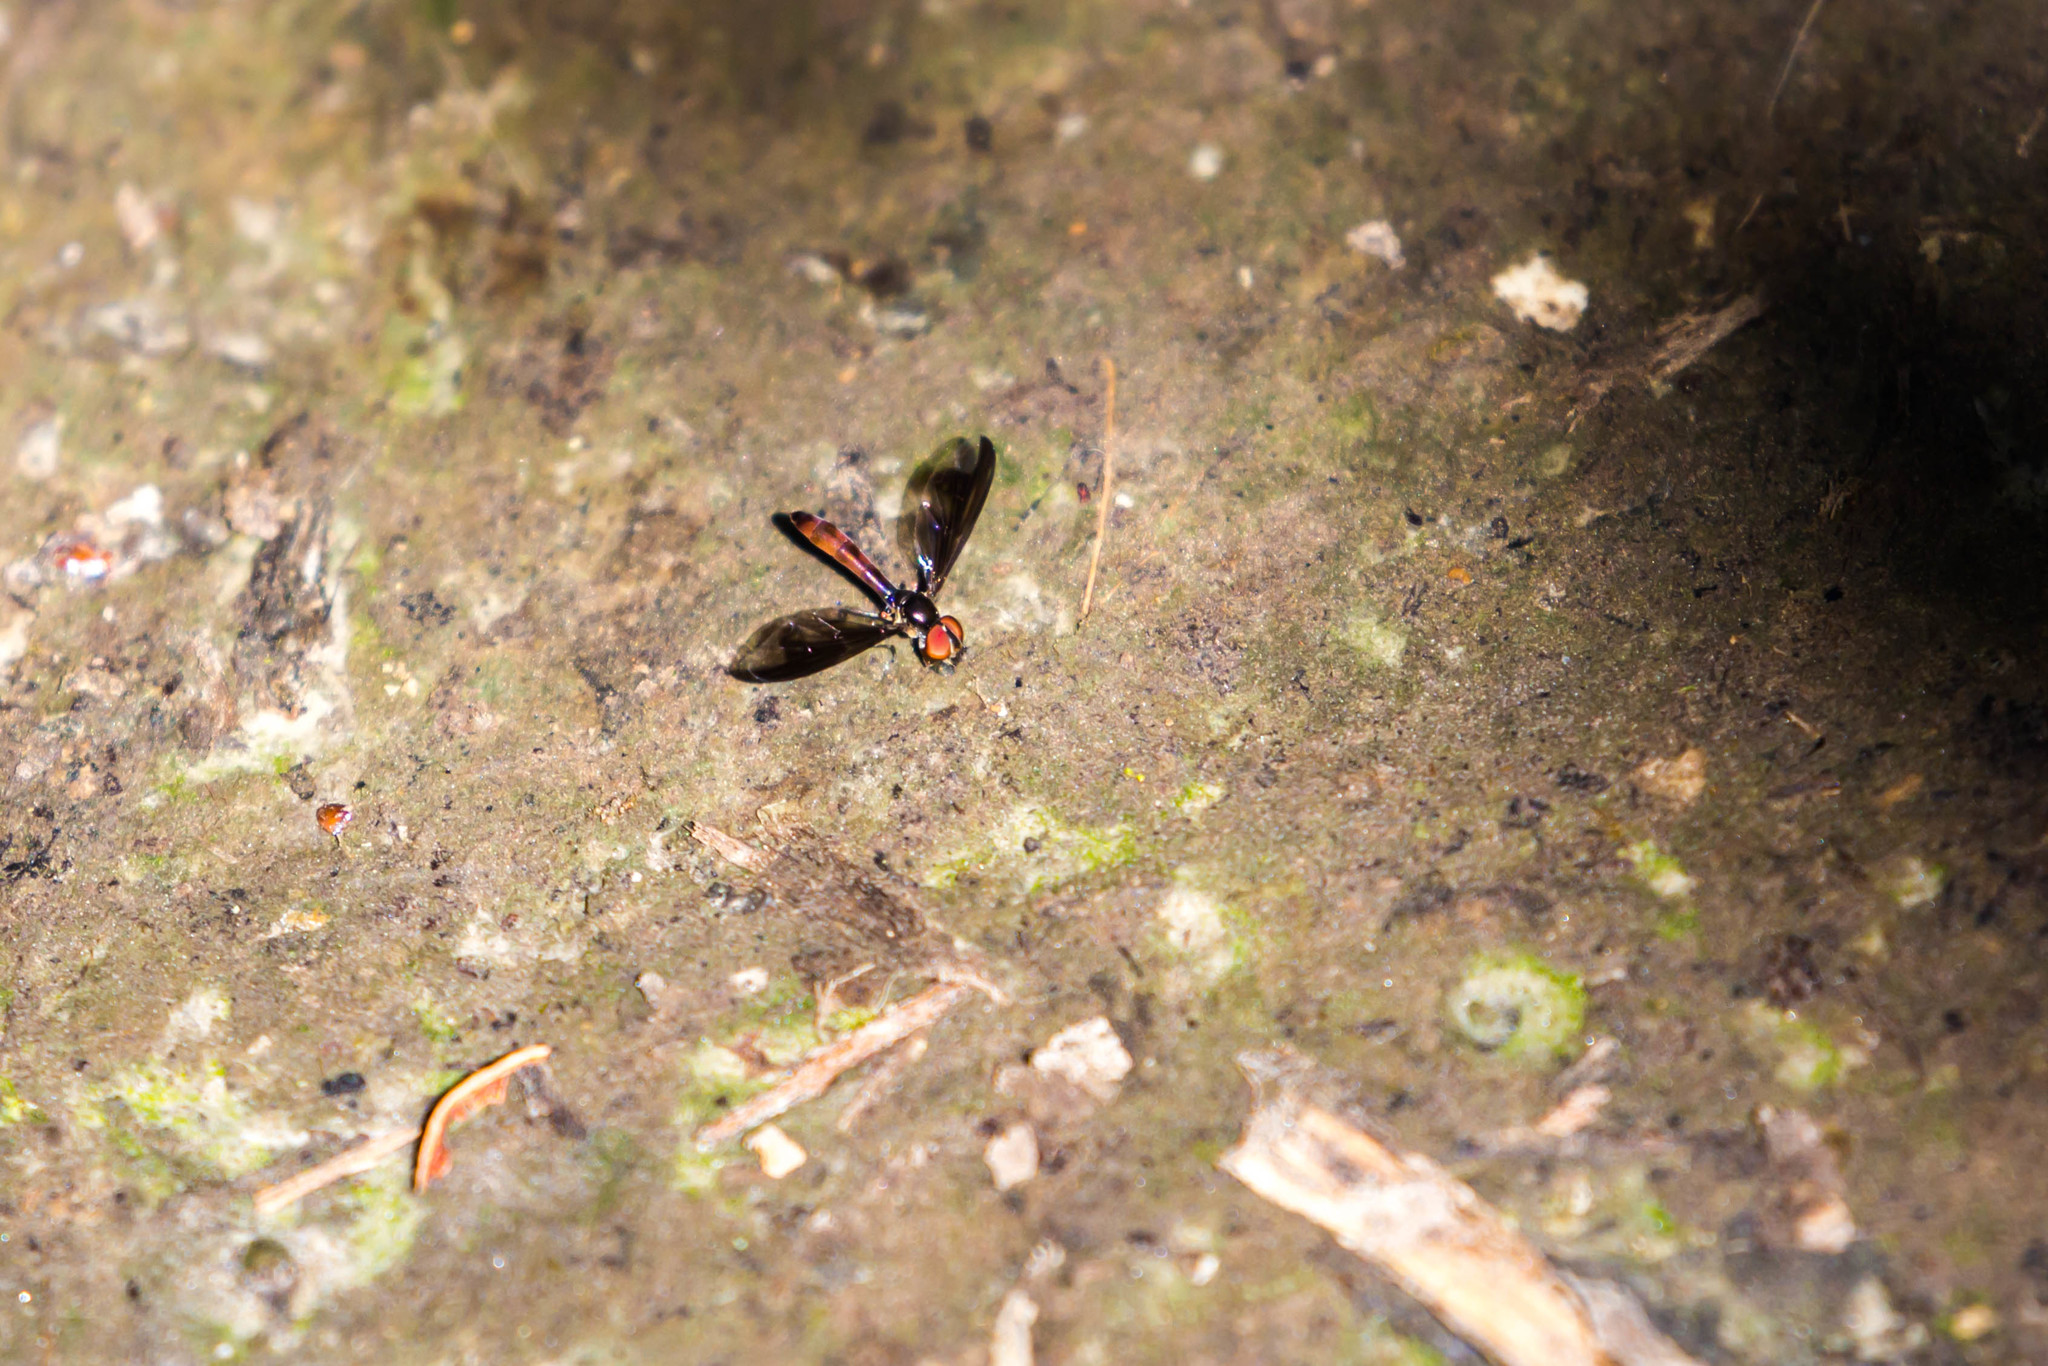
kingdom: Animalia
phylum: Arthropoda
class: Insecta
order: Diptera
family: Syrphidae
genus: Ocyptamus
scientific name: Ocyptamus fuscipennis
